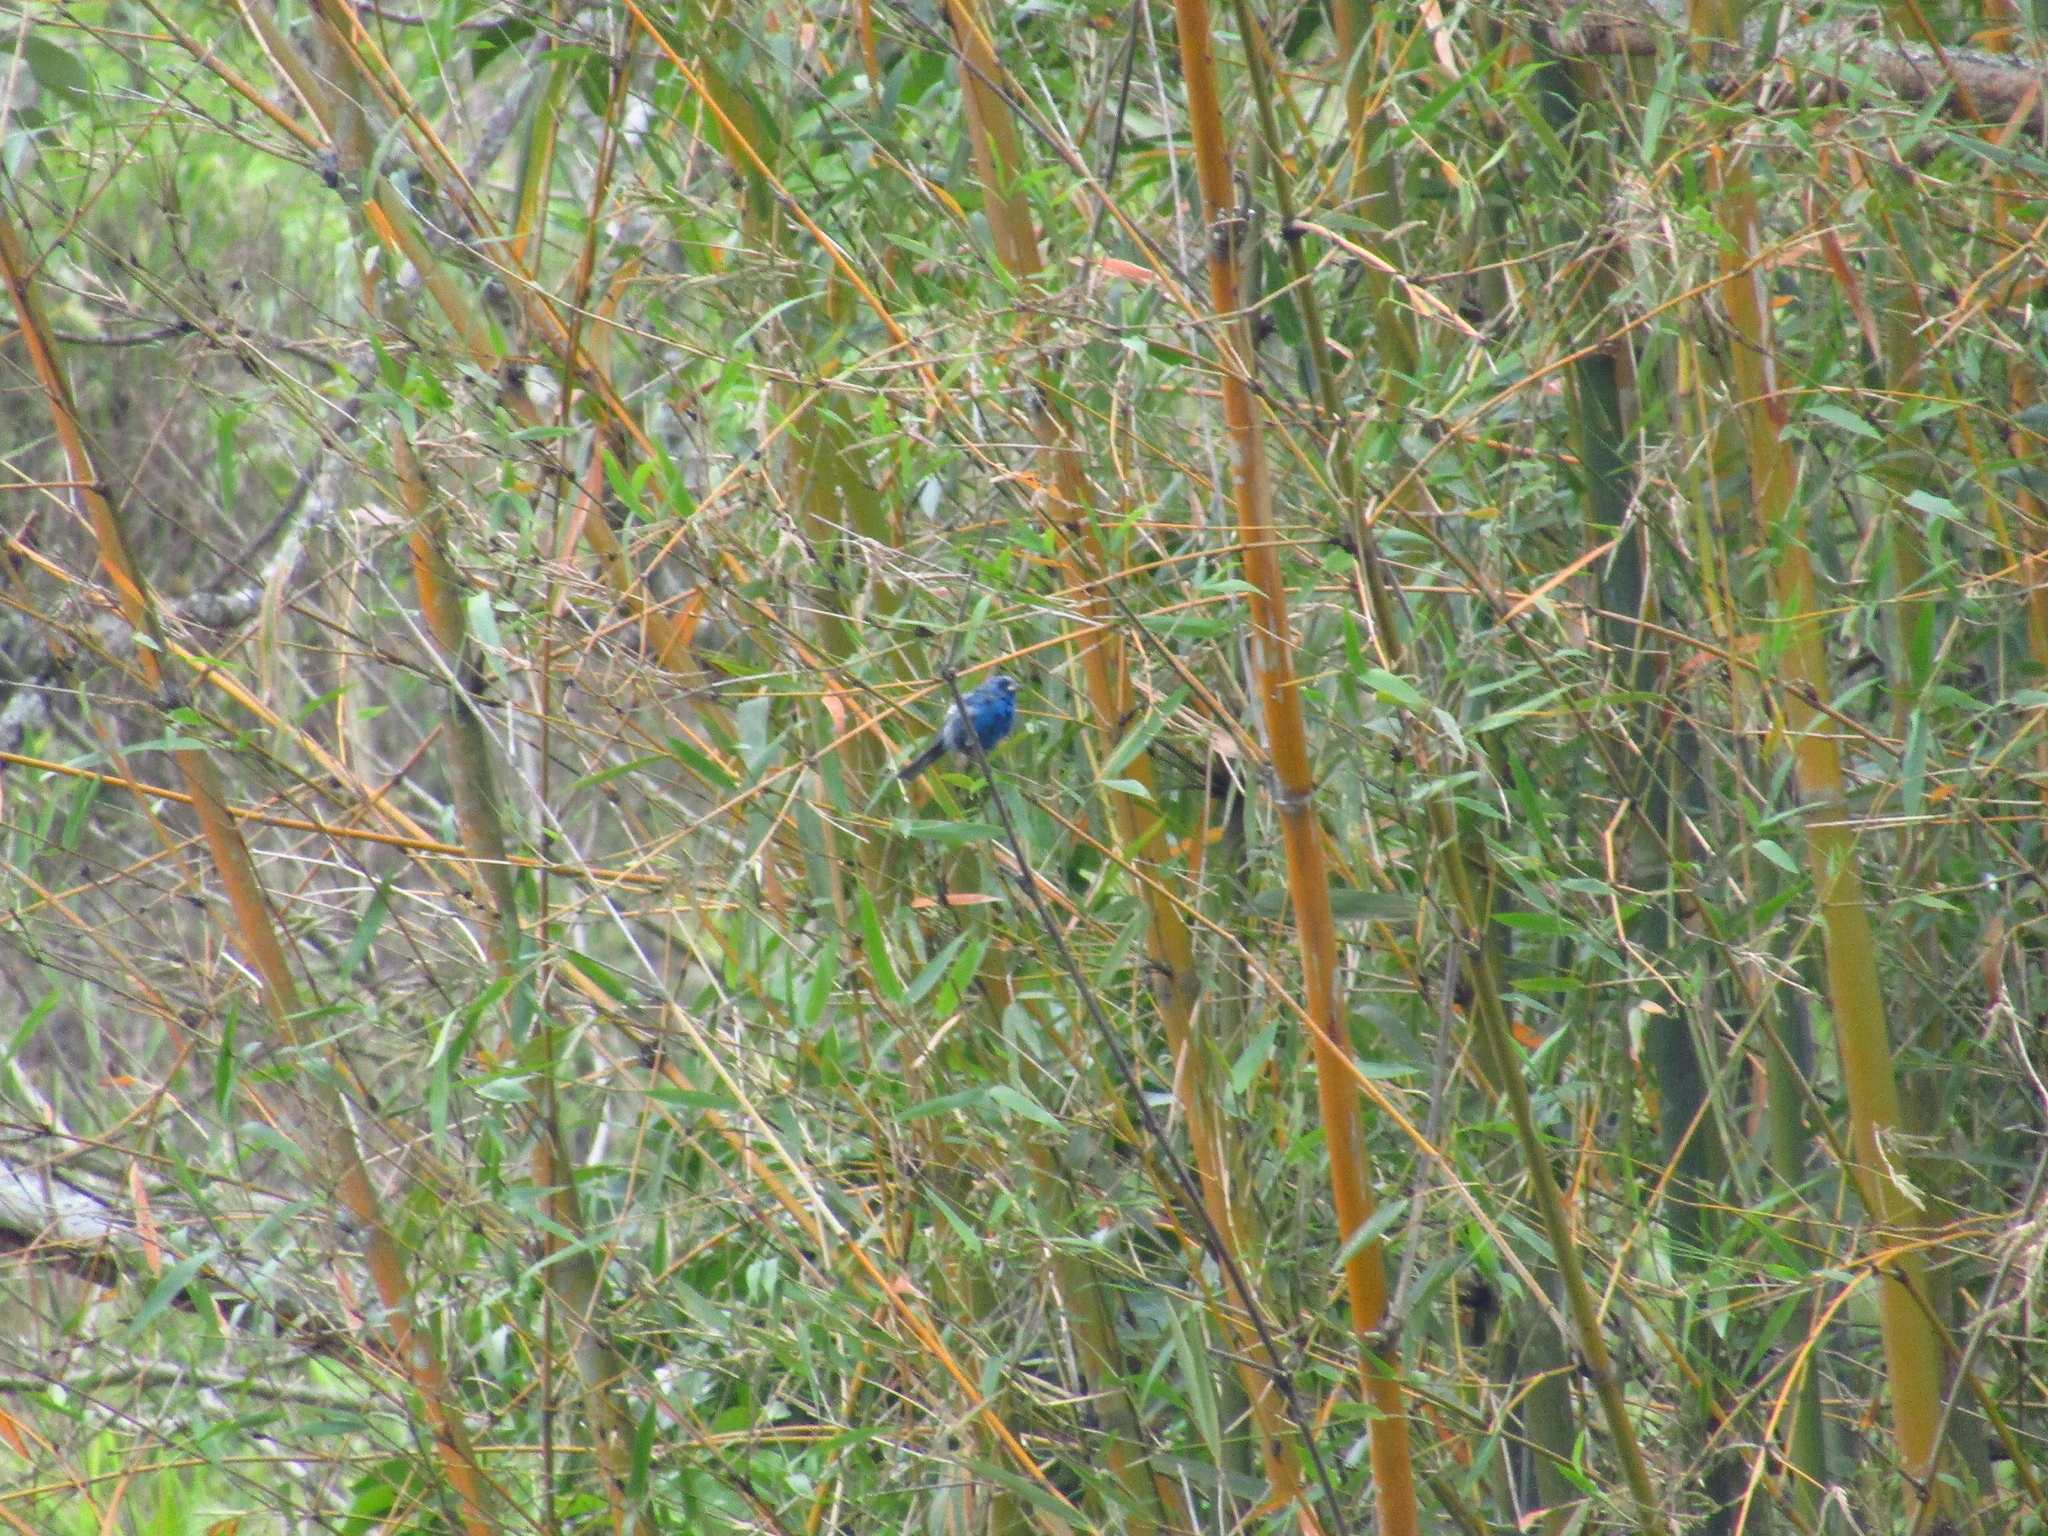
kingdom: Animalia
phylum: Chordata
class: Aves
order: Passeriformes
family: Cardinalidae
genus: Passerina
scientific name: Passerina cyanea
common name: Indigo bunting
